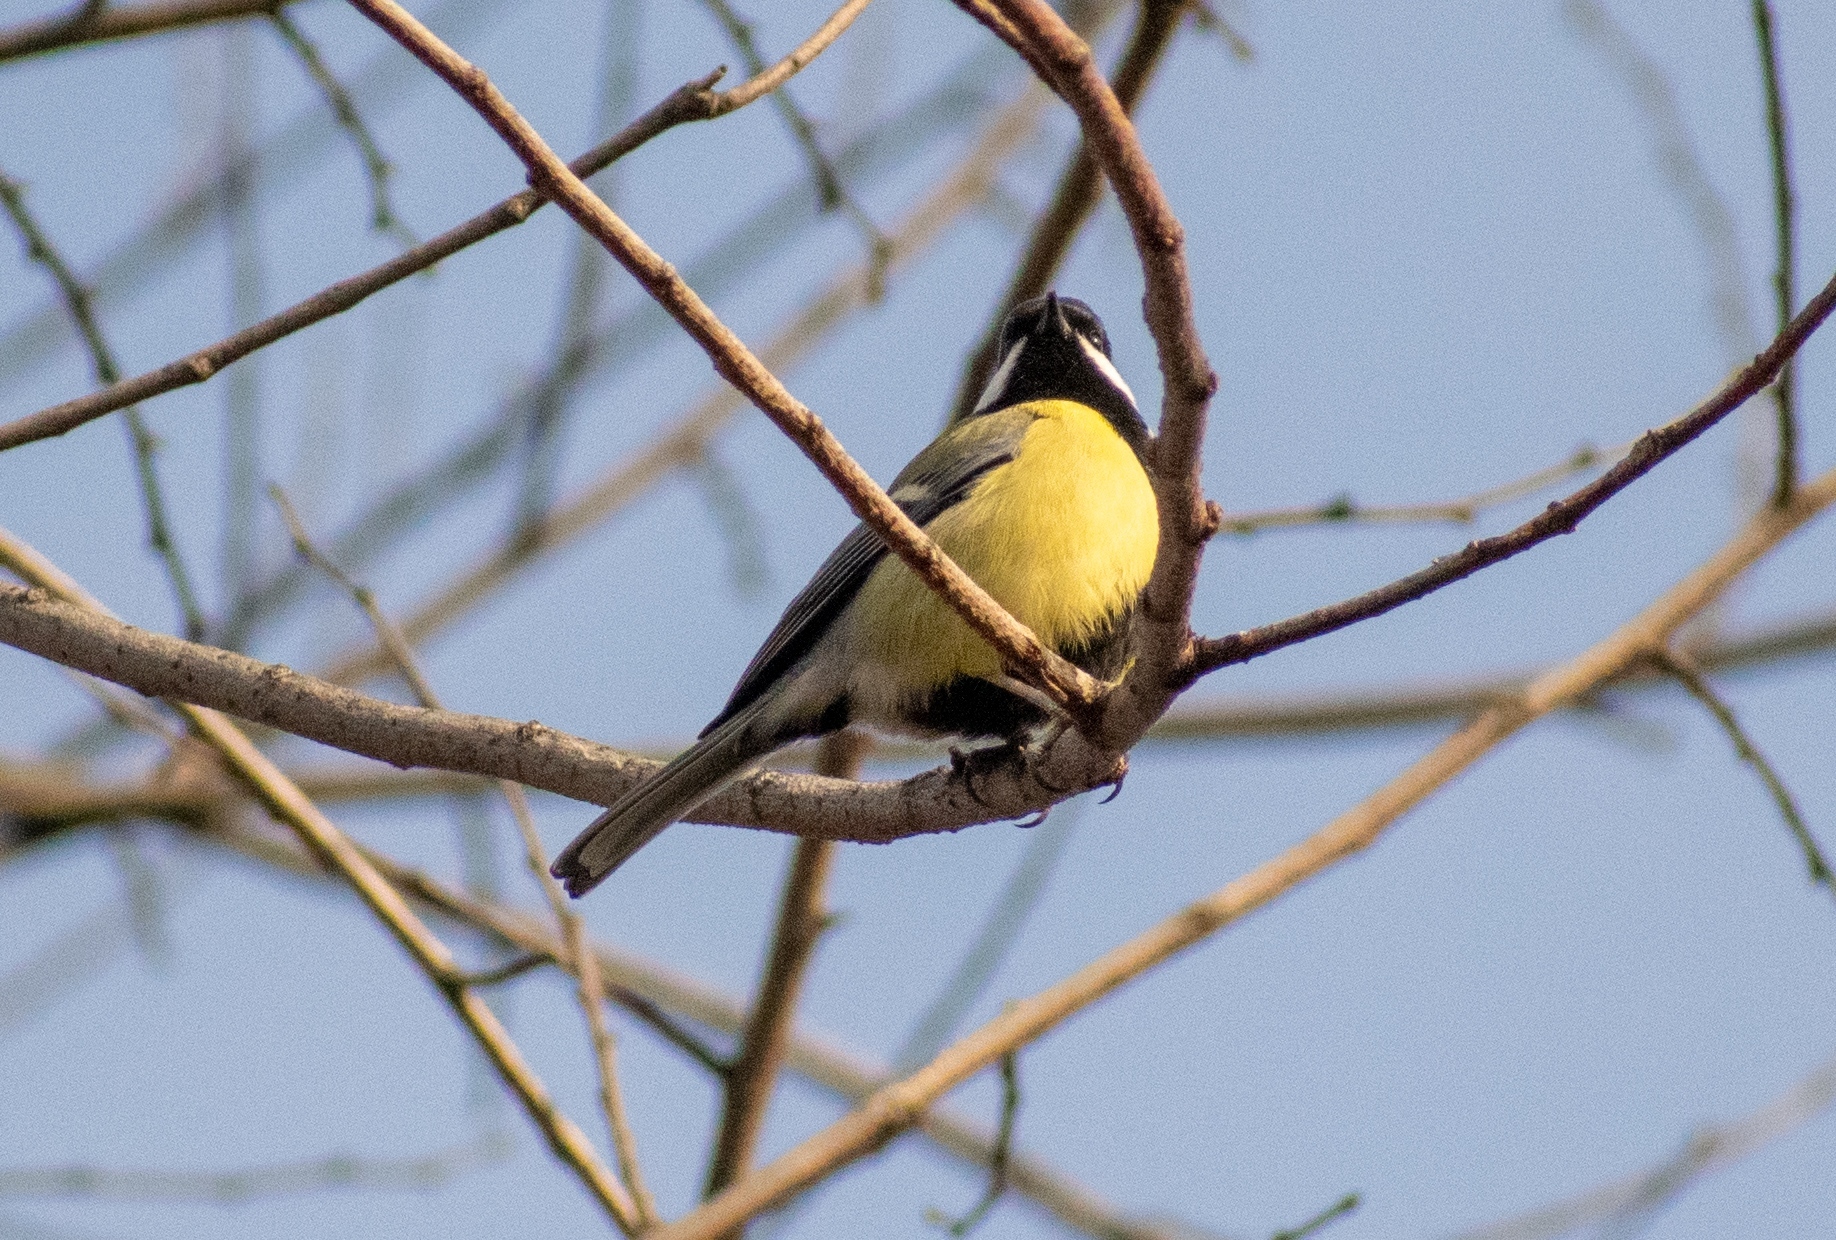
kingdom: Animalia
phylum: Chordata
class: Aves
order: Passeriformes
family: Paridae
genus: Parus
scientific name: Parus major
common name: Great tit
